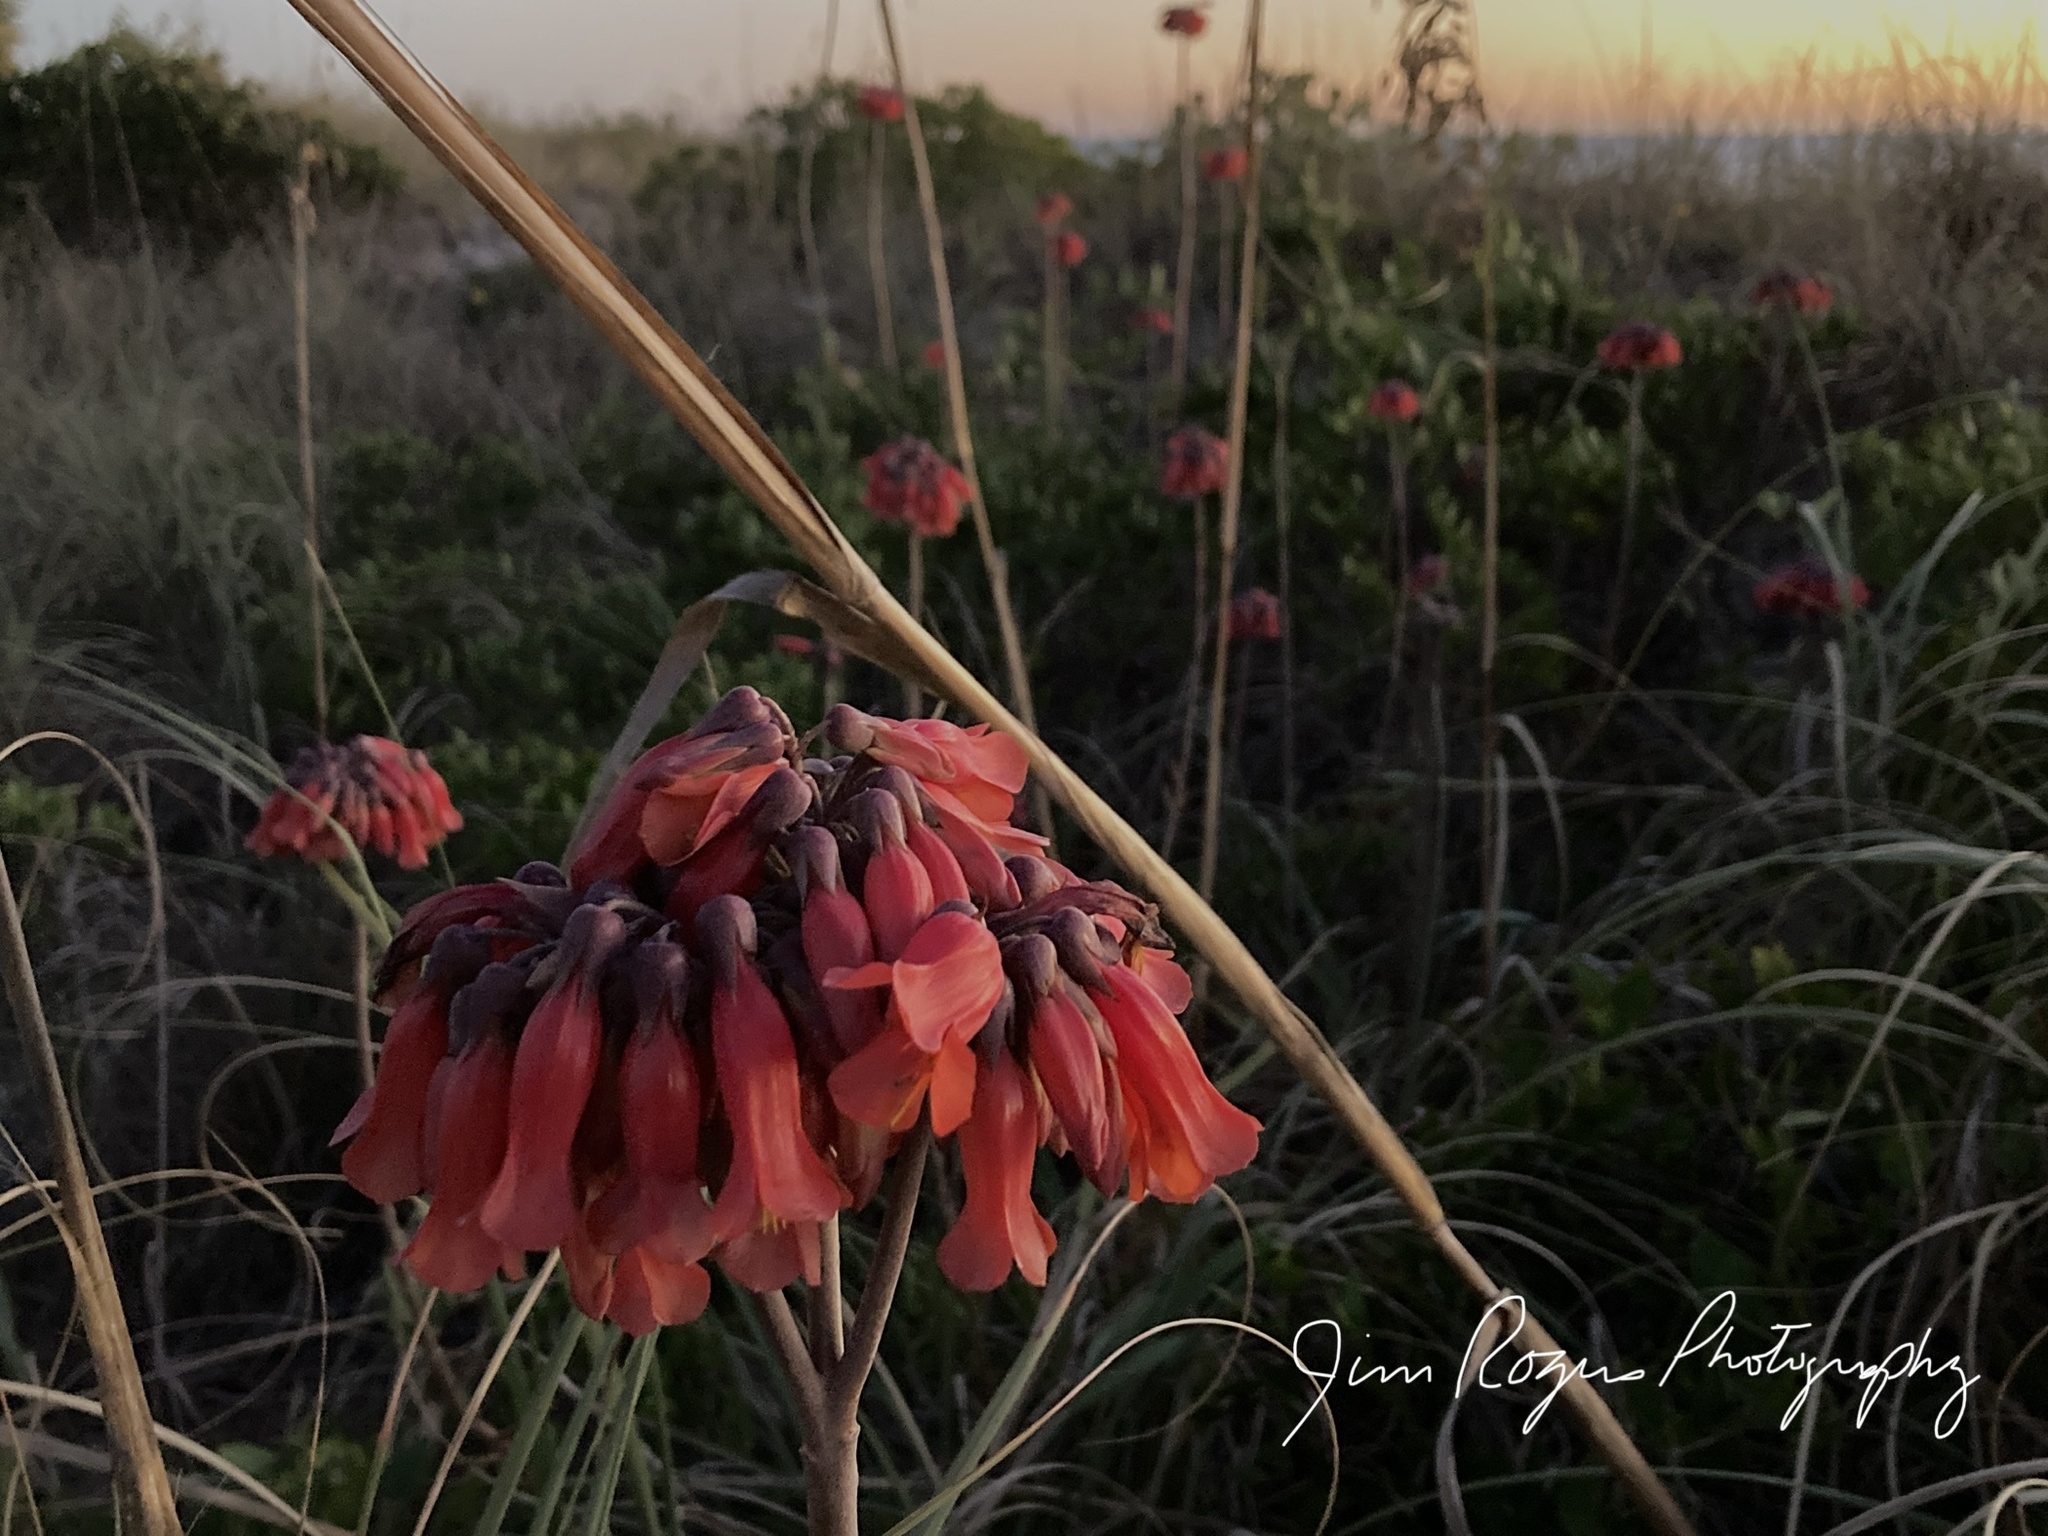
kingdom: Plantae
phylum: Tracheophyta
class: Magnoliopsida
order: Saxifragales
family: Crassulaceae
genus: Kalanchoe
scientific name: Kalanchoe delagoensis
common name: Chandelier plant
